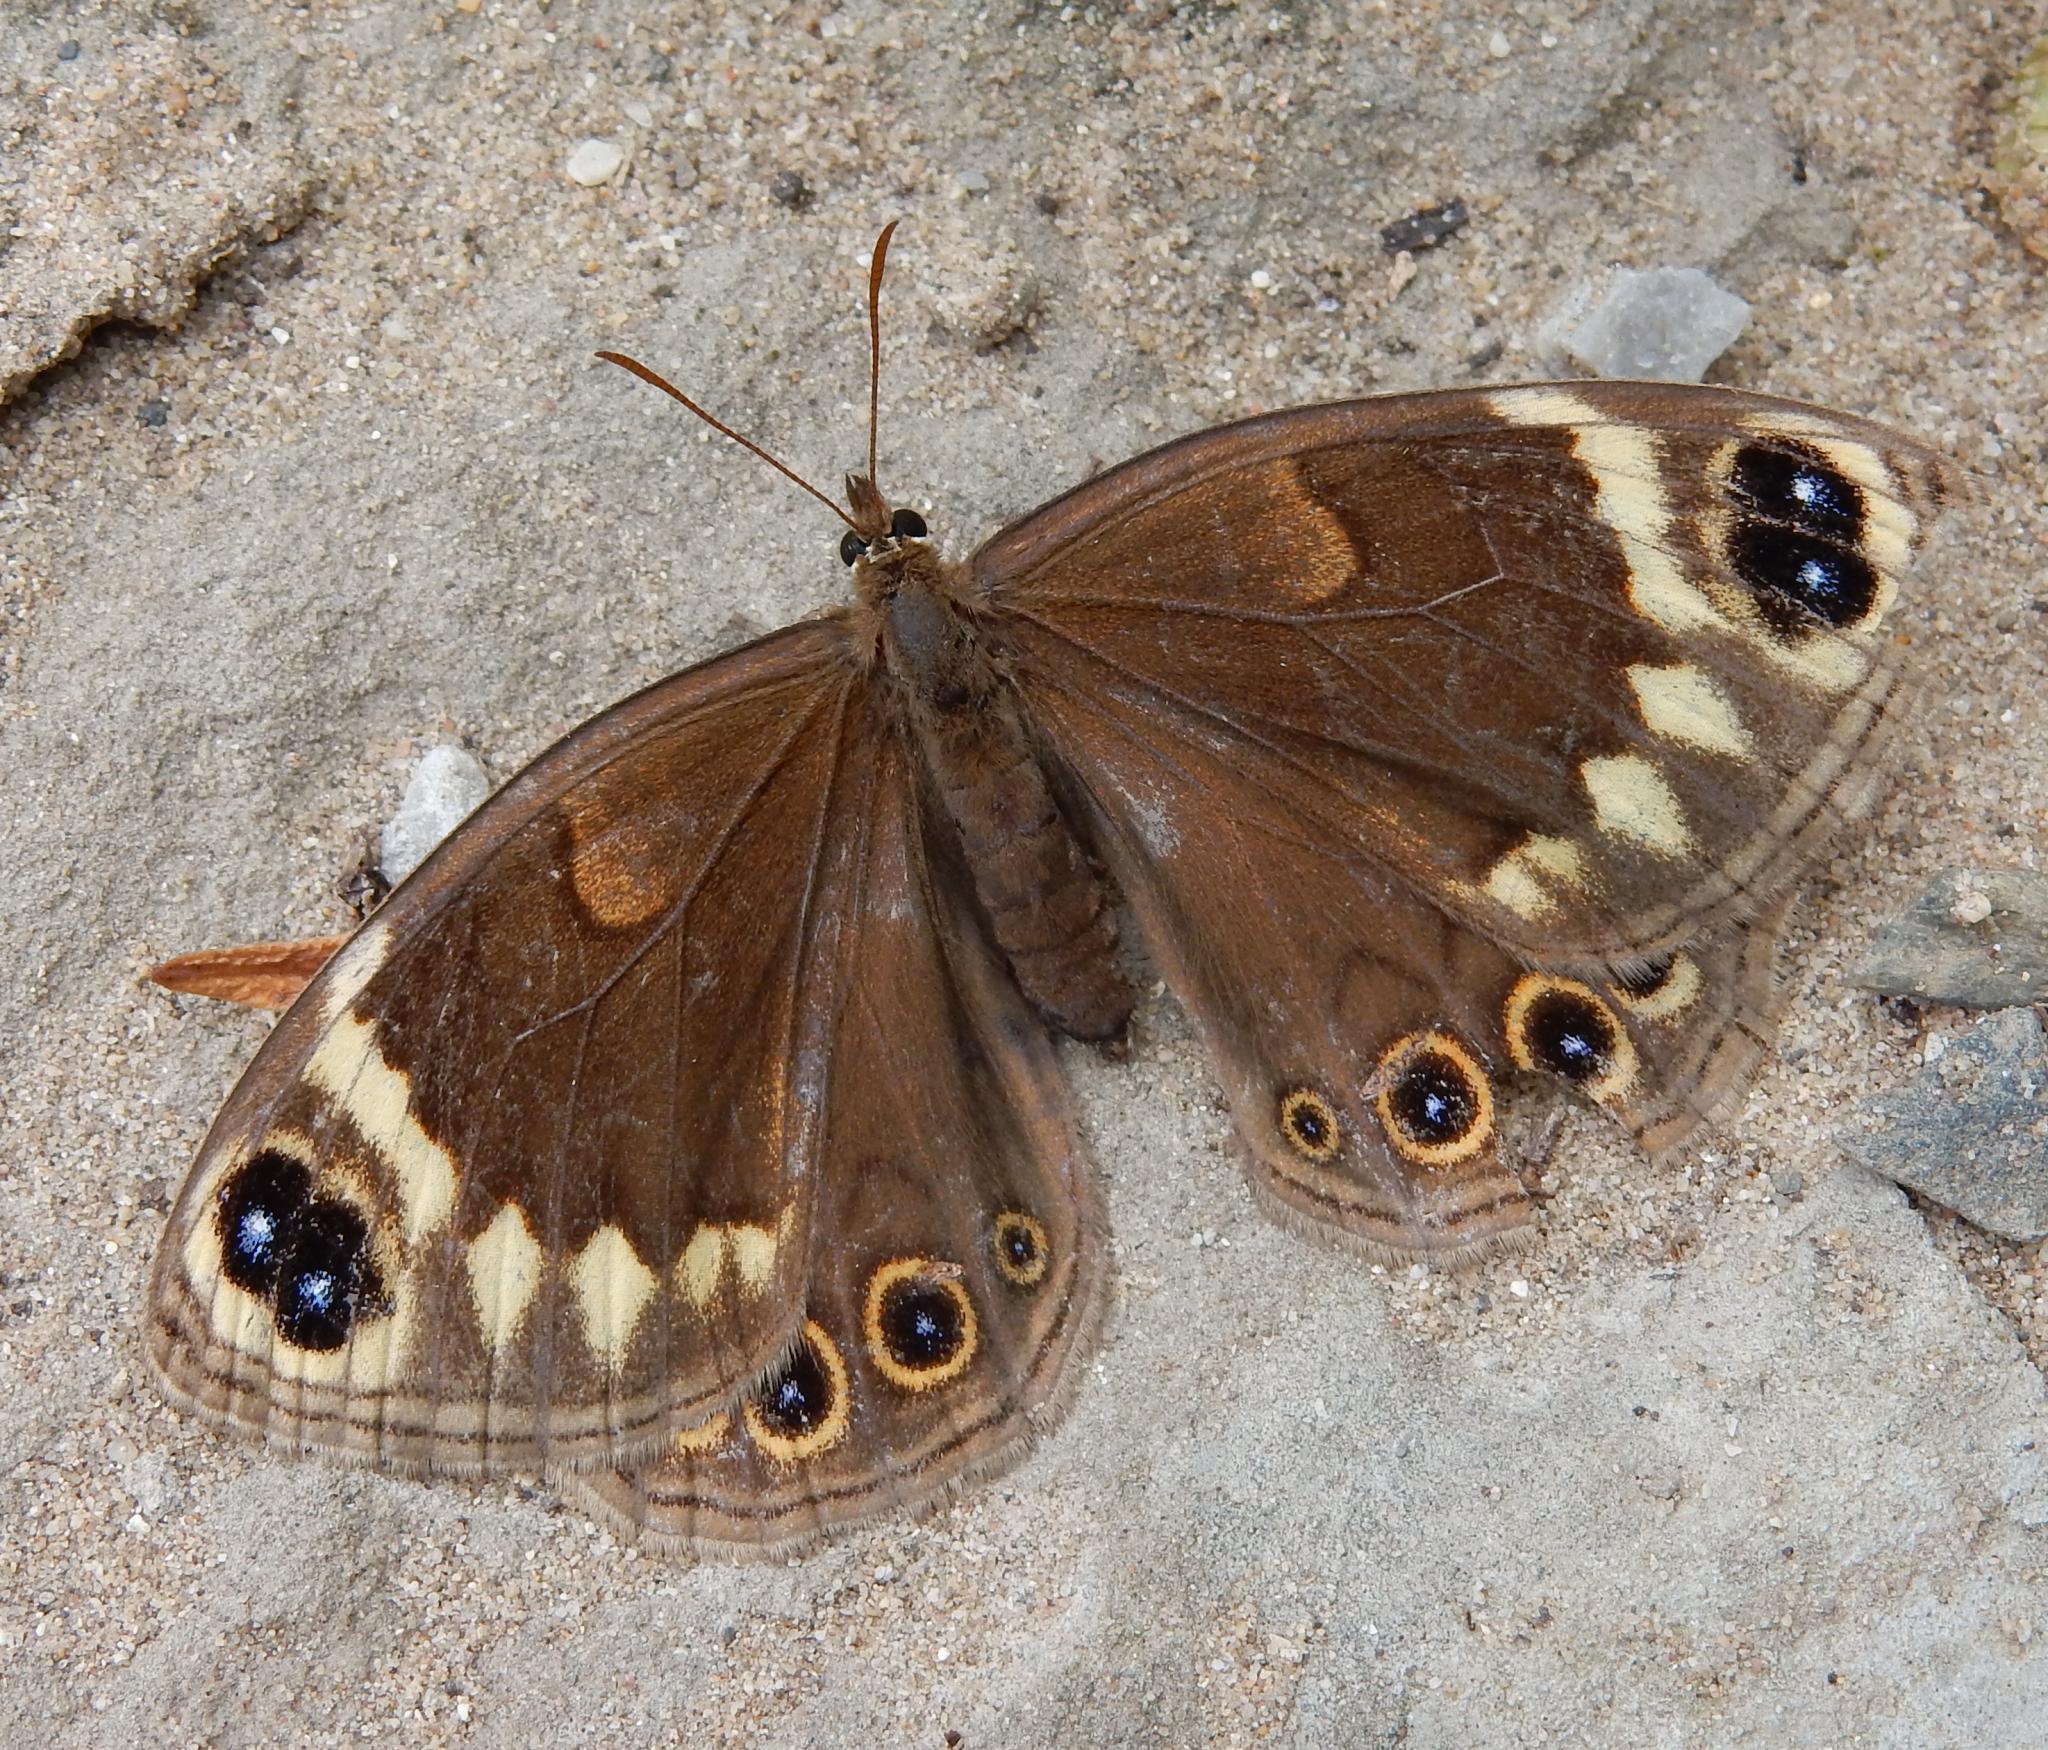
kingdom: Animalia
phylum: Arthropoda
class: Insecta
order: Lepidoptera
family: Nymphalidae
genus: Dira
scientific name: Dira clytus
